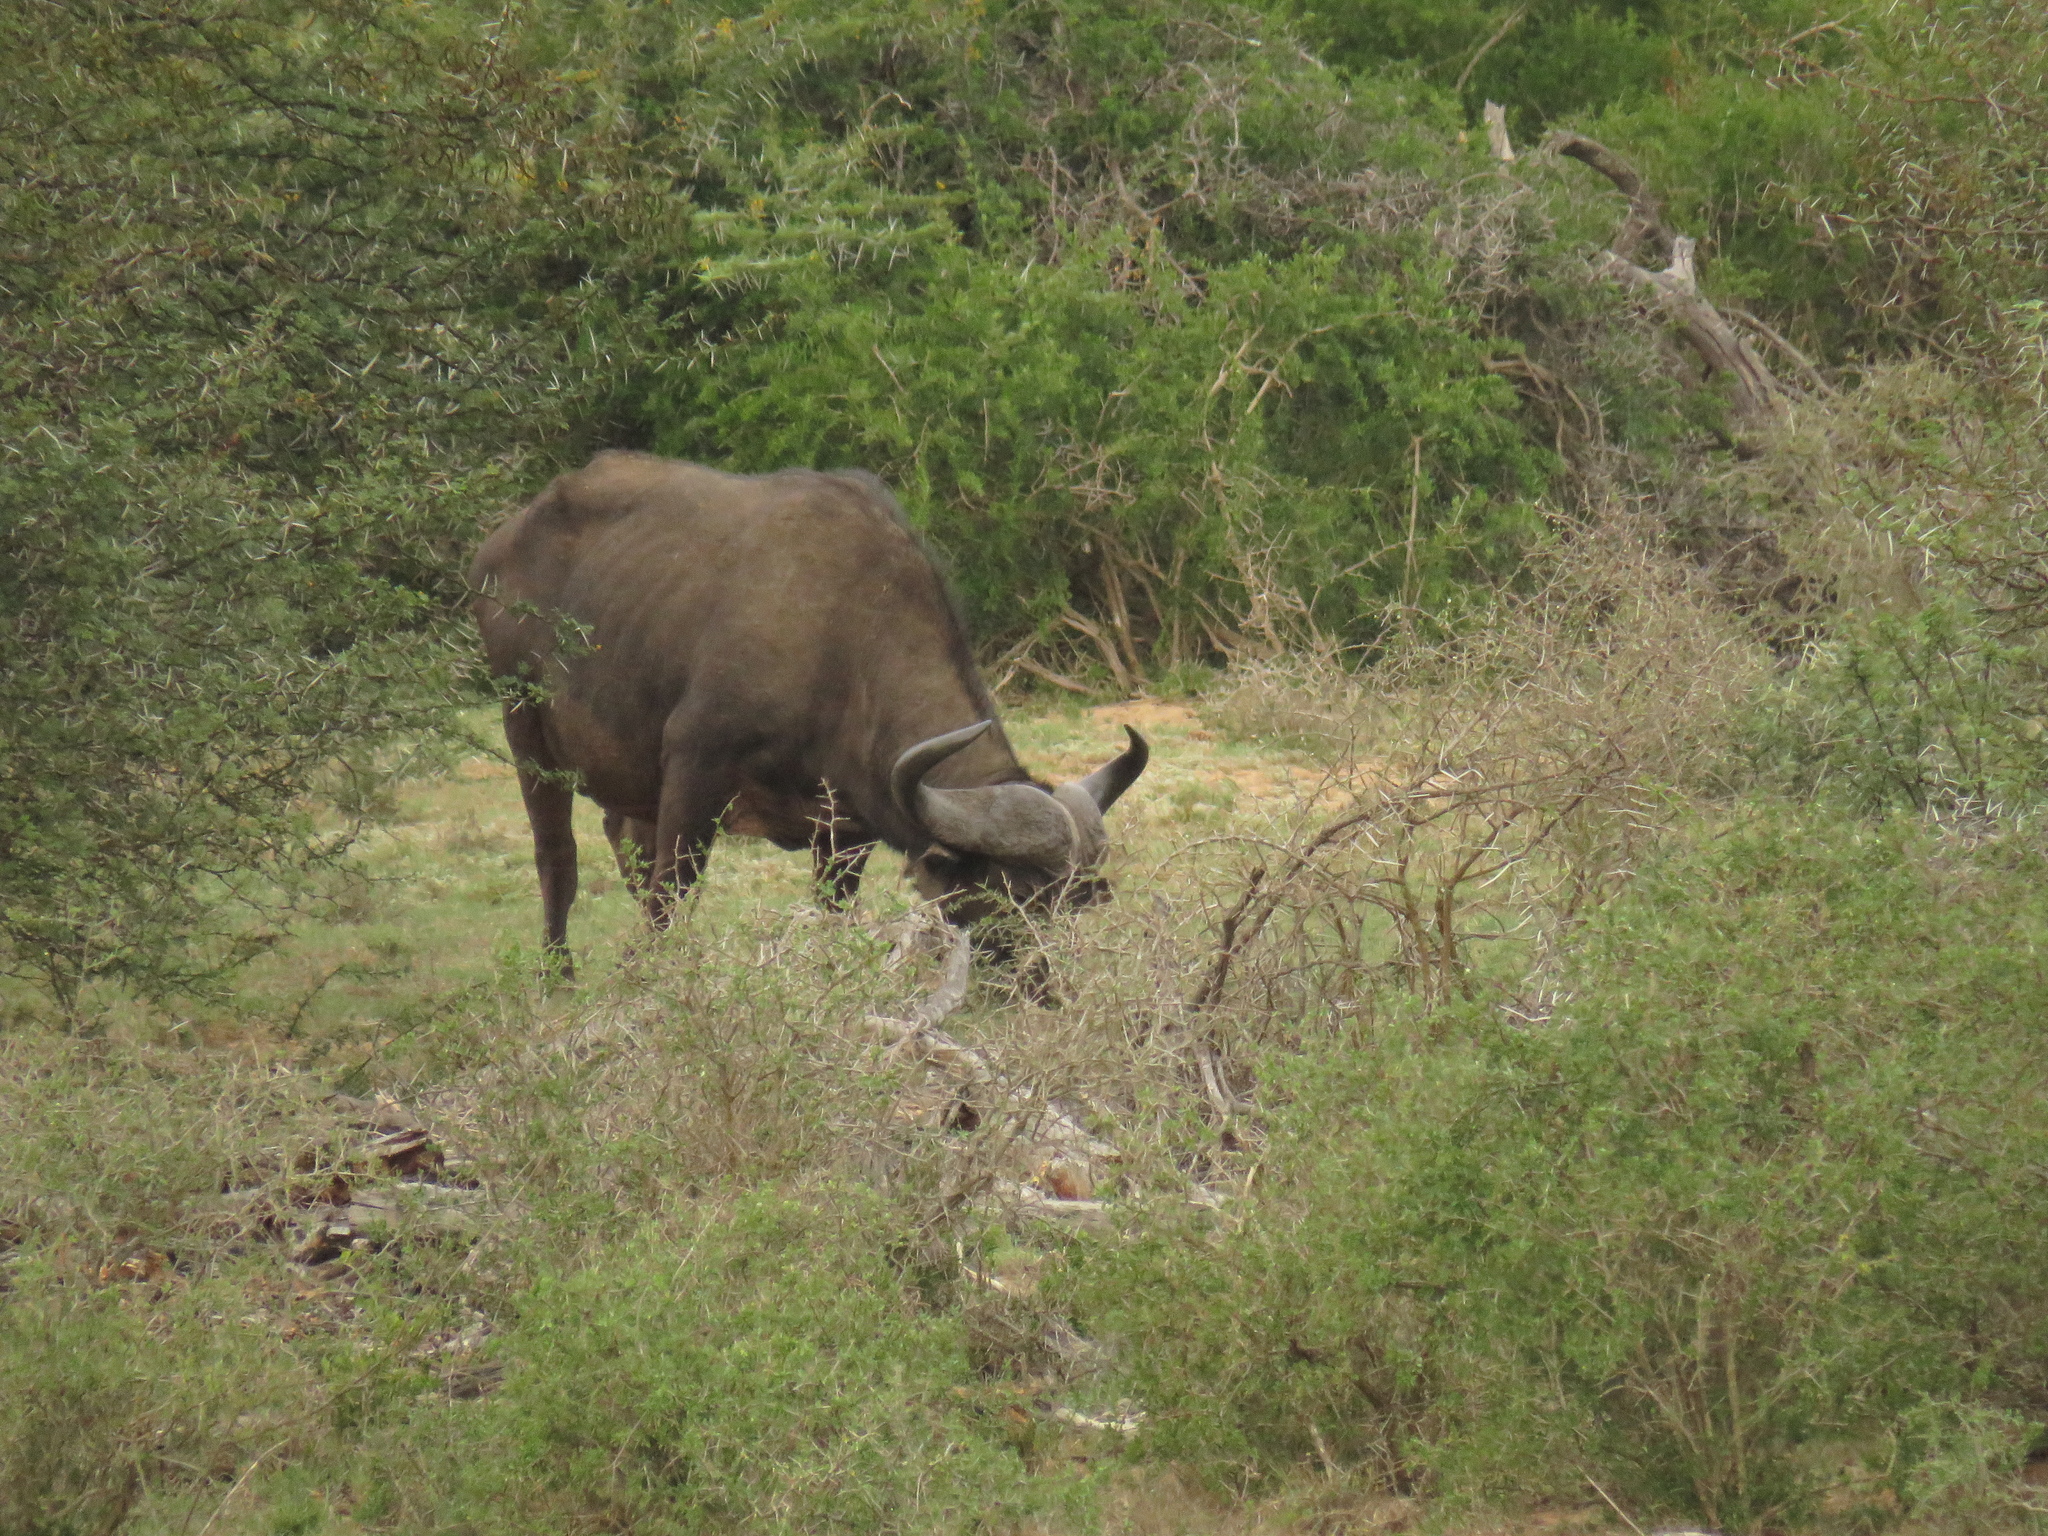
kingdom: Animalia
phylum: Chordata
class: Mammalia
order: Artiodactyla
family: Bovidae
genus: Syncerus
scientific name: Syncerus caffer
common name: African buffalo
